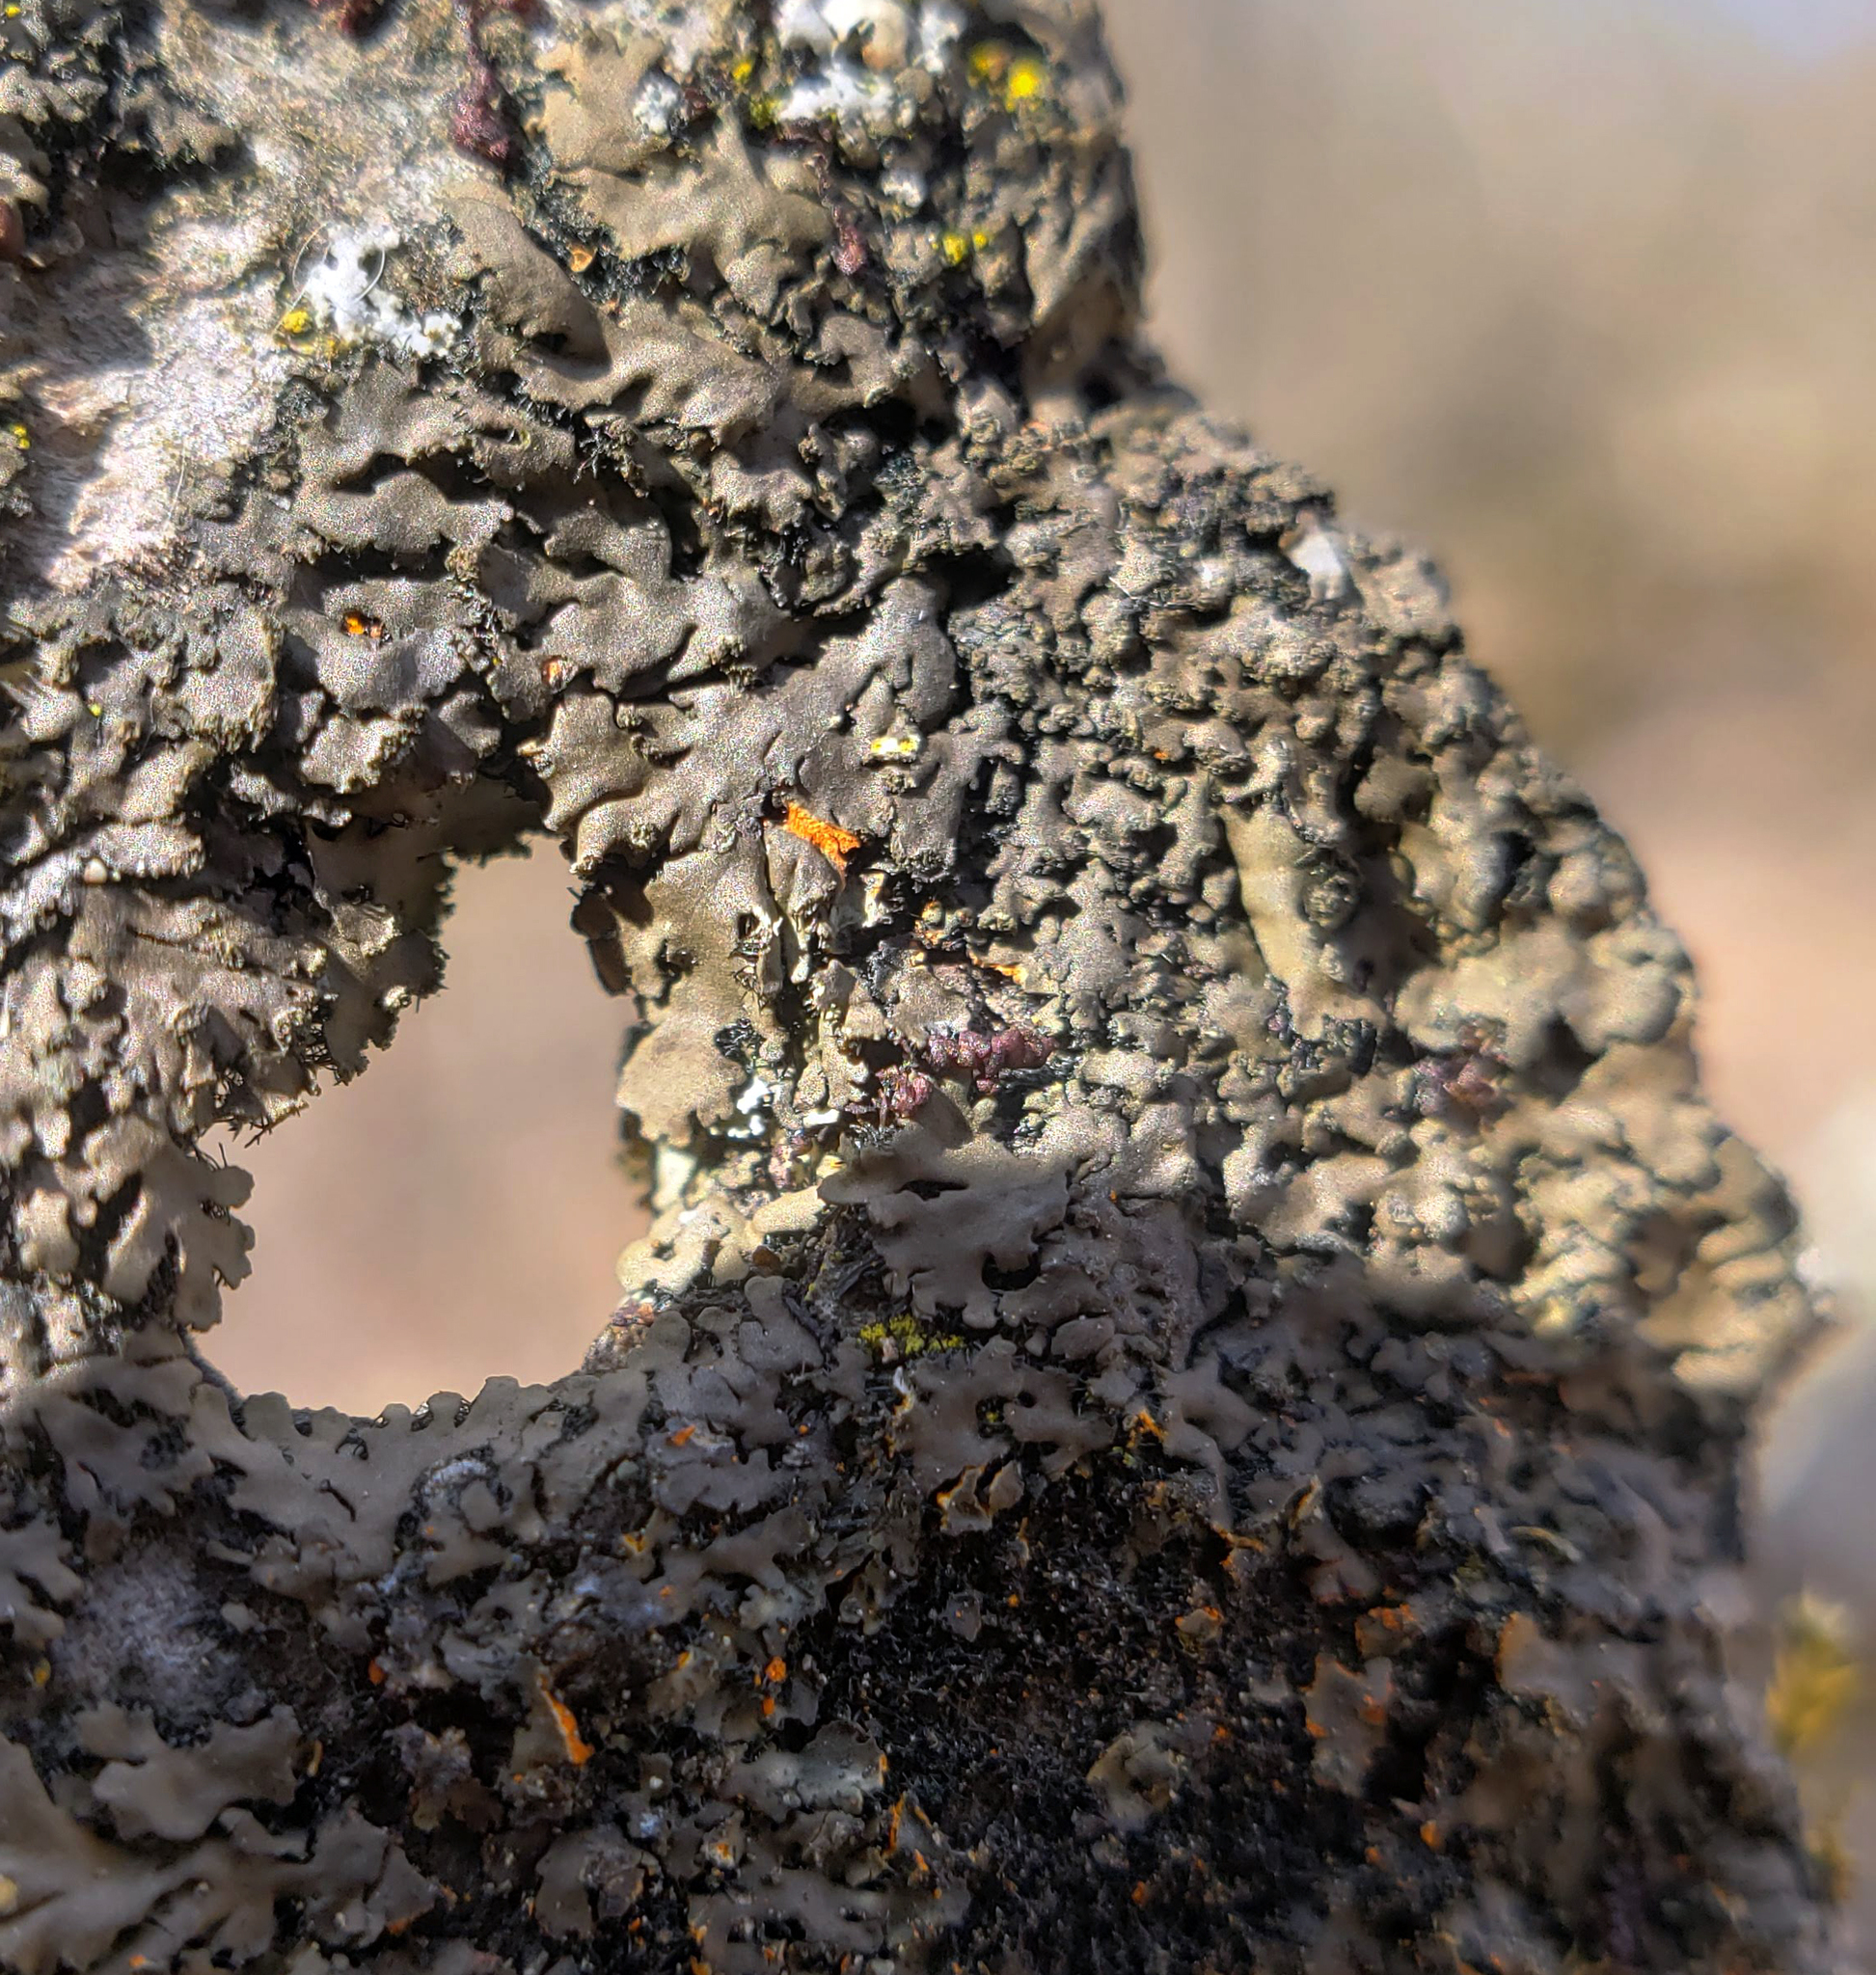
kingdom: Fungi
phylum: Ascomycota
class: Lecanoromycetes
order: Caliciales
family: Physciaceae
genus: Phaeophyscia
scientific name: Phaeophyscia rubropulchra
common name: Orange-cored shadow lichen
